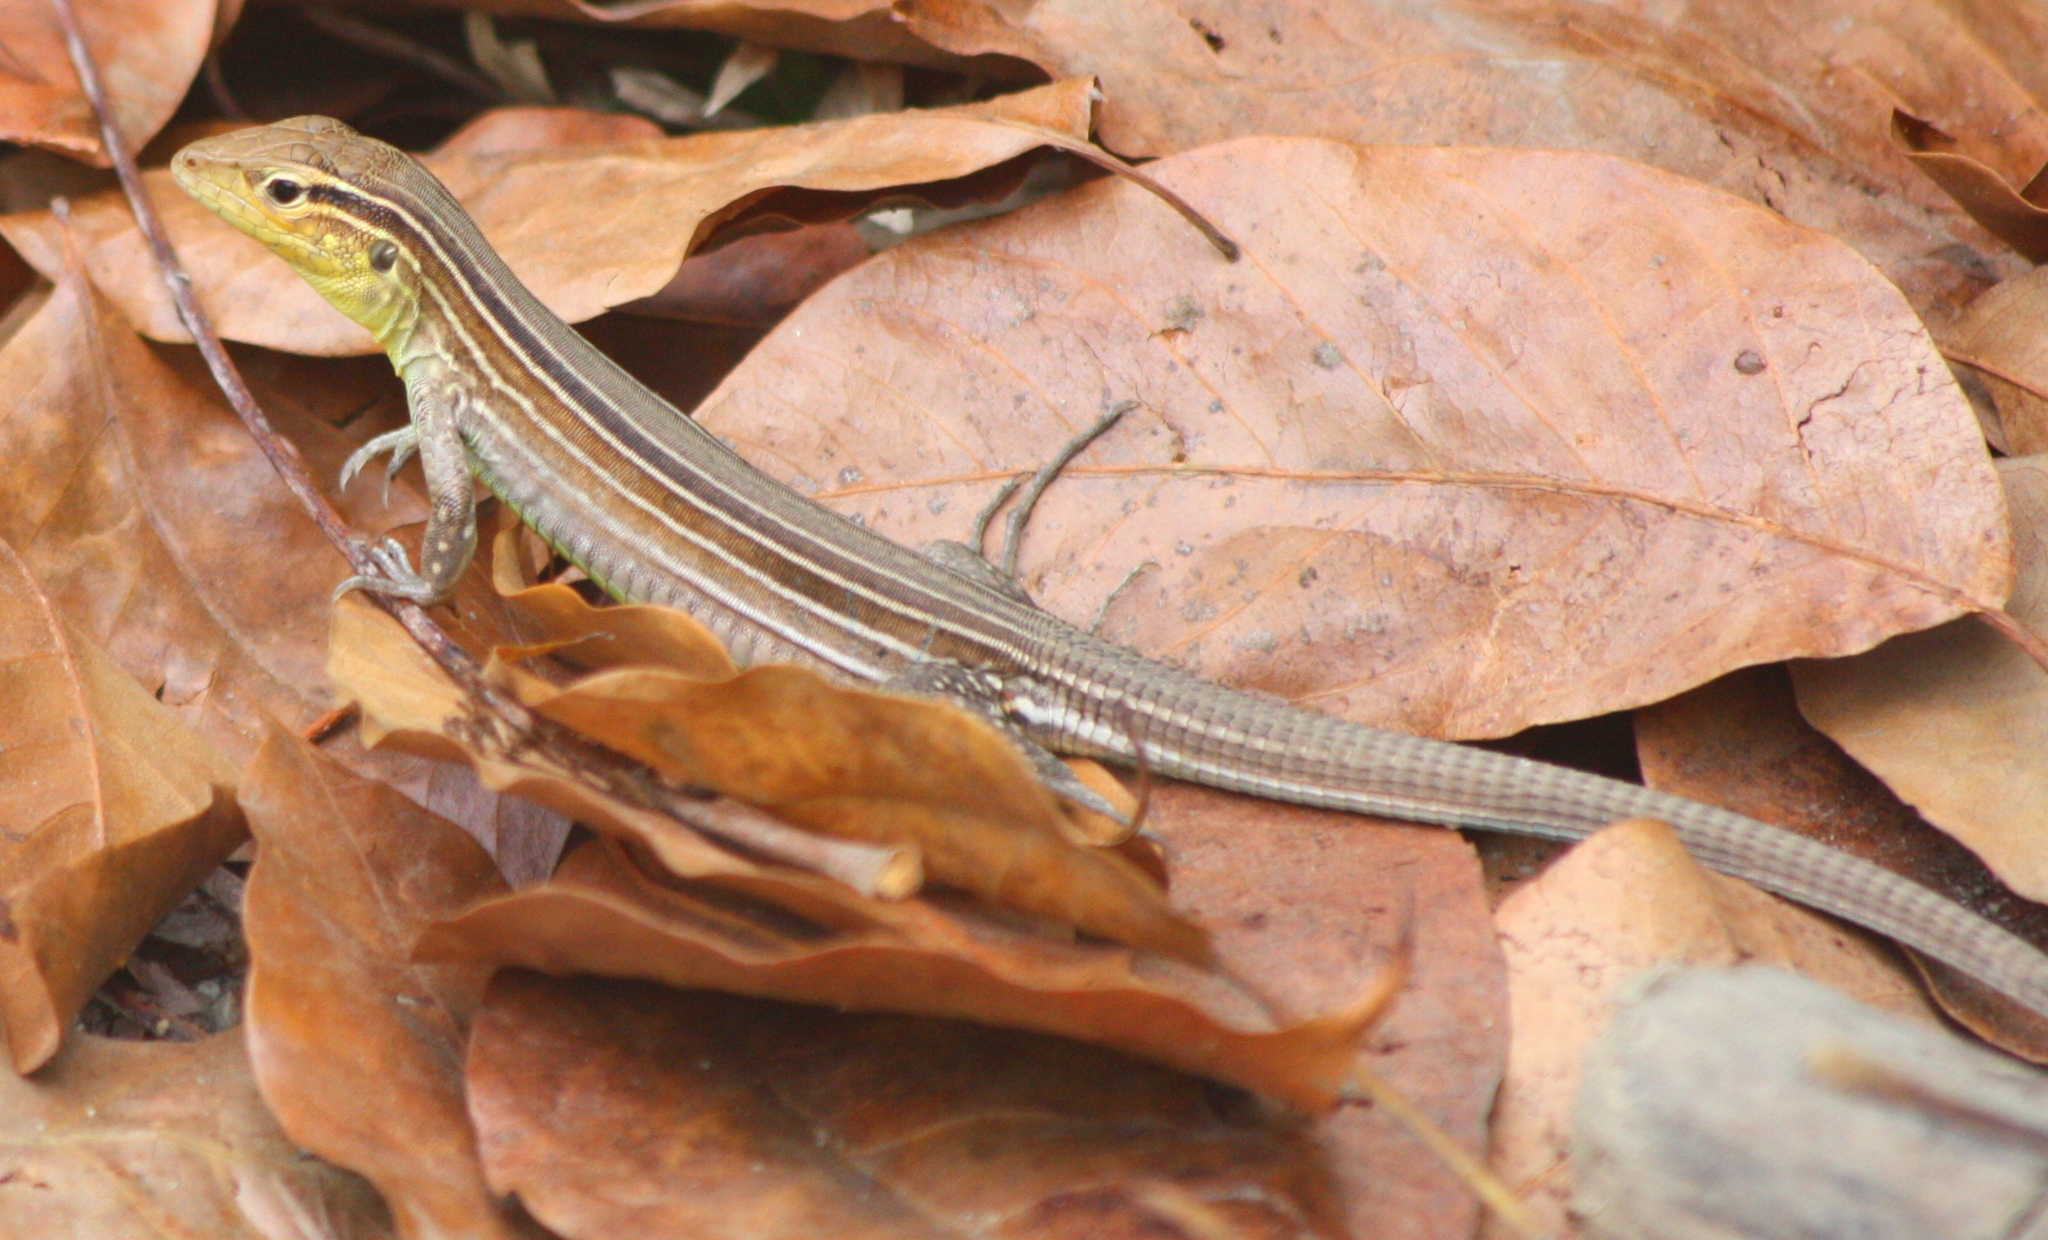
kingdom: Animalia
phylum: Chordata
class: Squamata
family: Teiidae
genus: Cnemidophorus
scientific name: Cnemidophorus gaigei
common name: Gaige’s rainbow lizard
